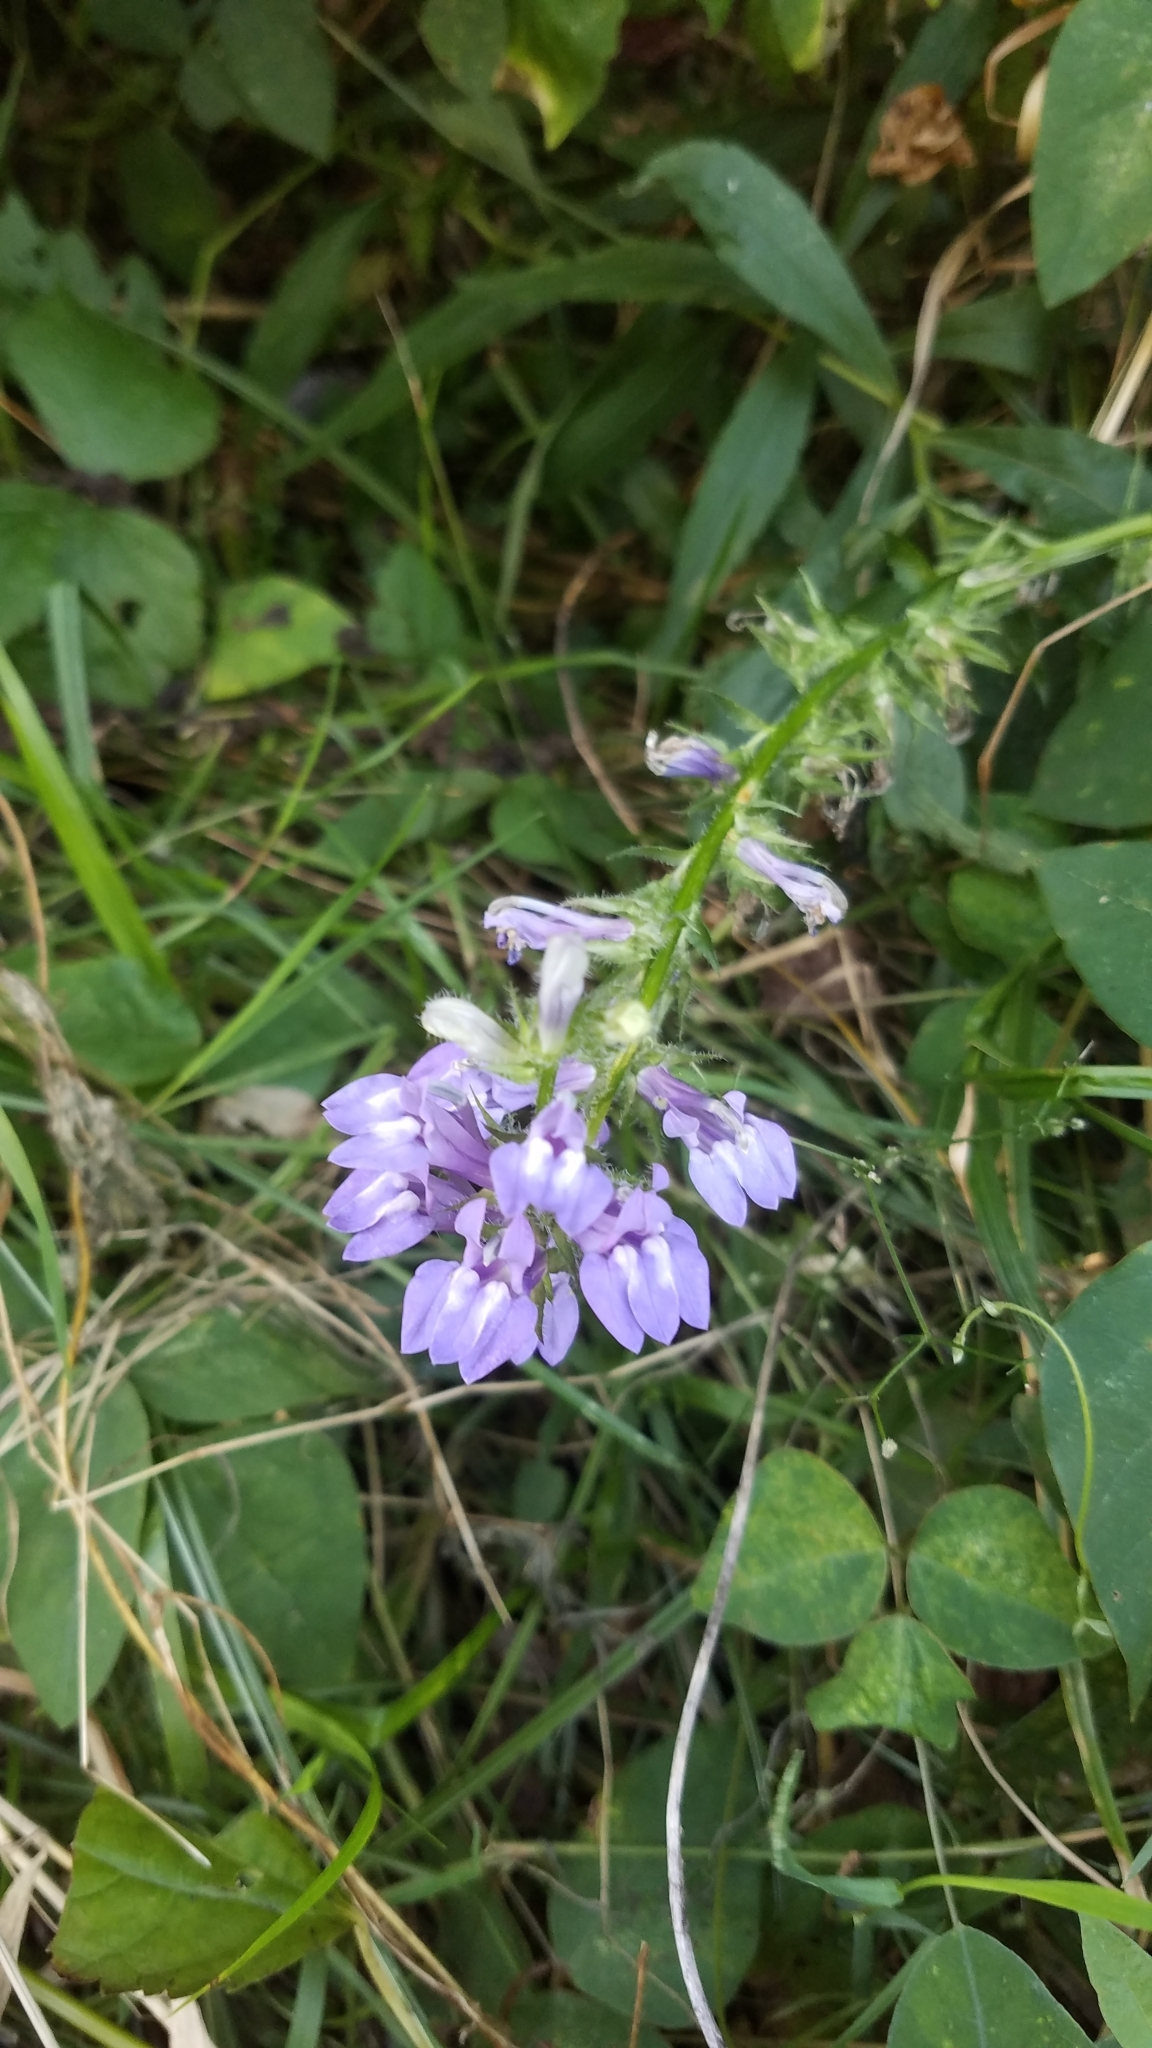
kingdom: Plantae
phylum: Tracheophyta
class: Magnoliopsida
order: Asterales
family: Campanulaceae
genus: Lobelia
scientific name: Lobelia siphilitica
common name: Great lobelia
